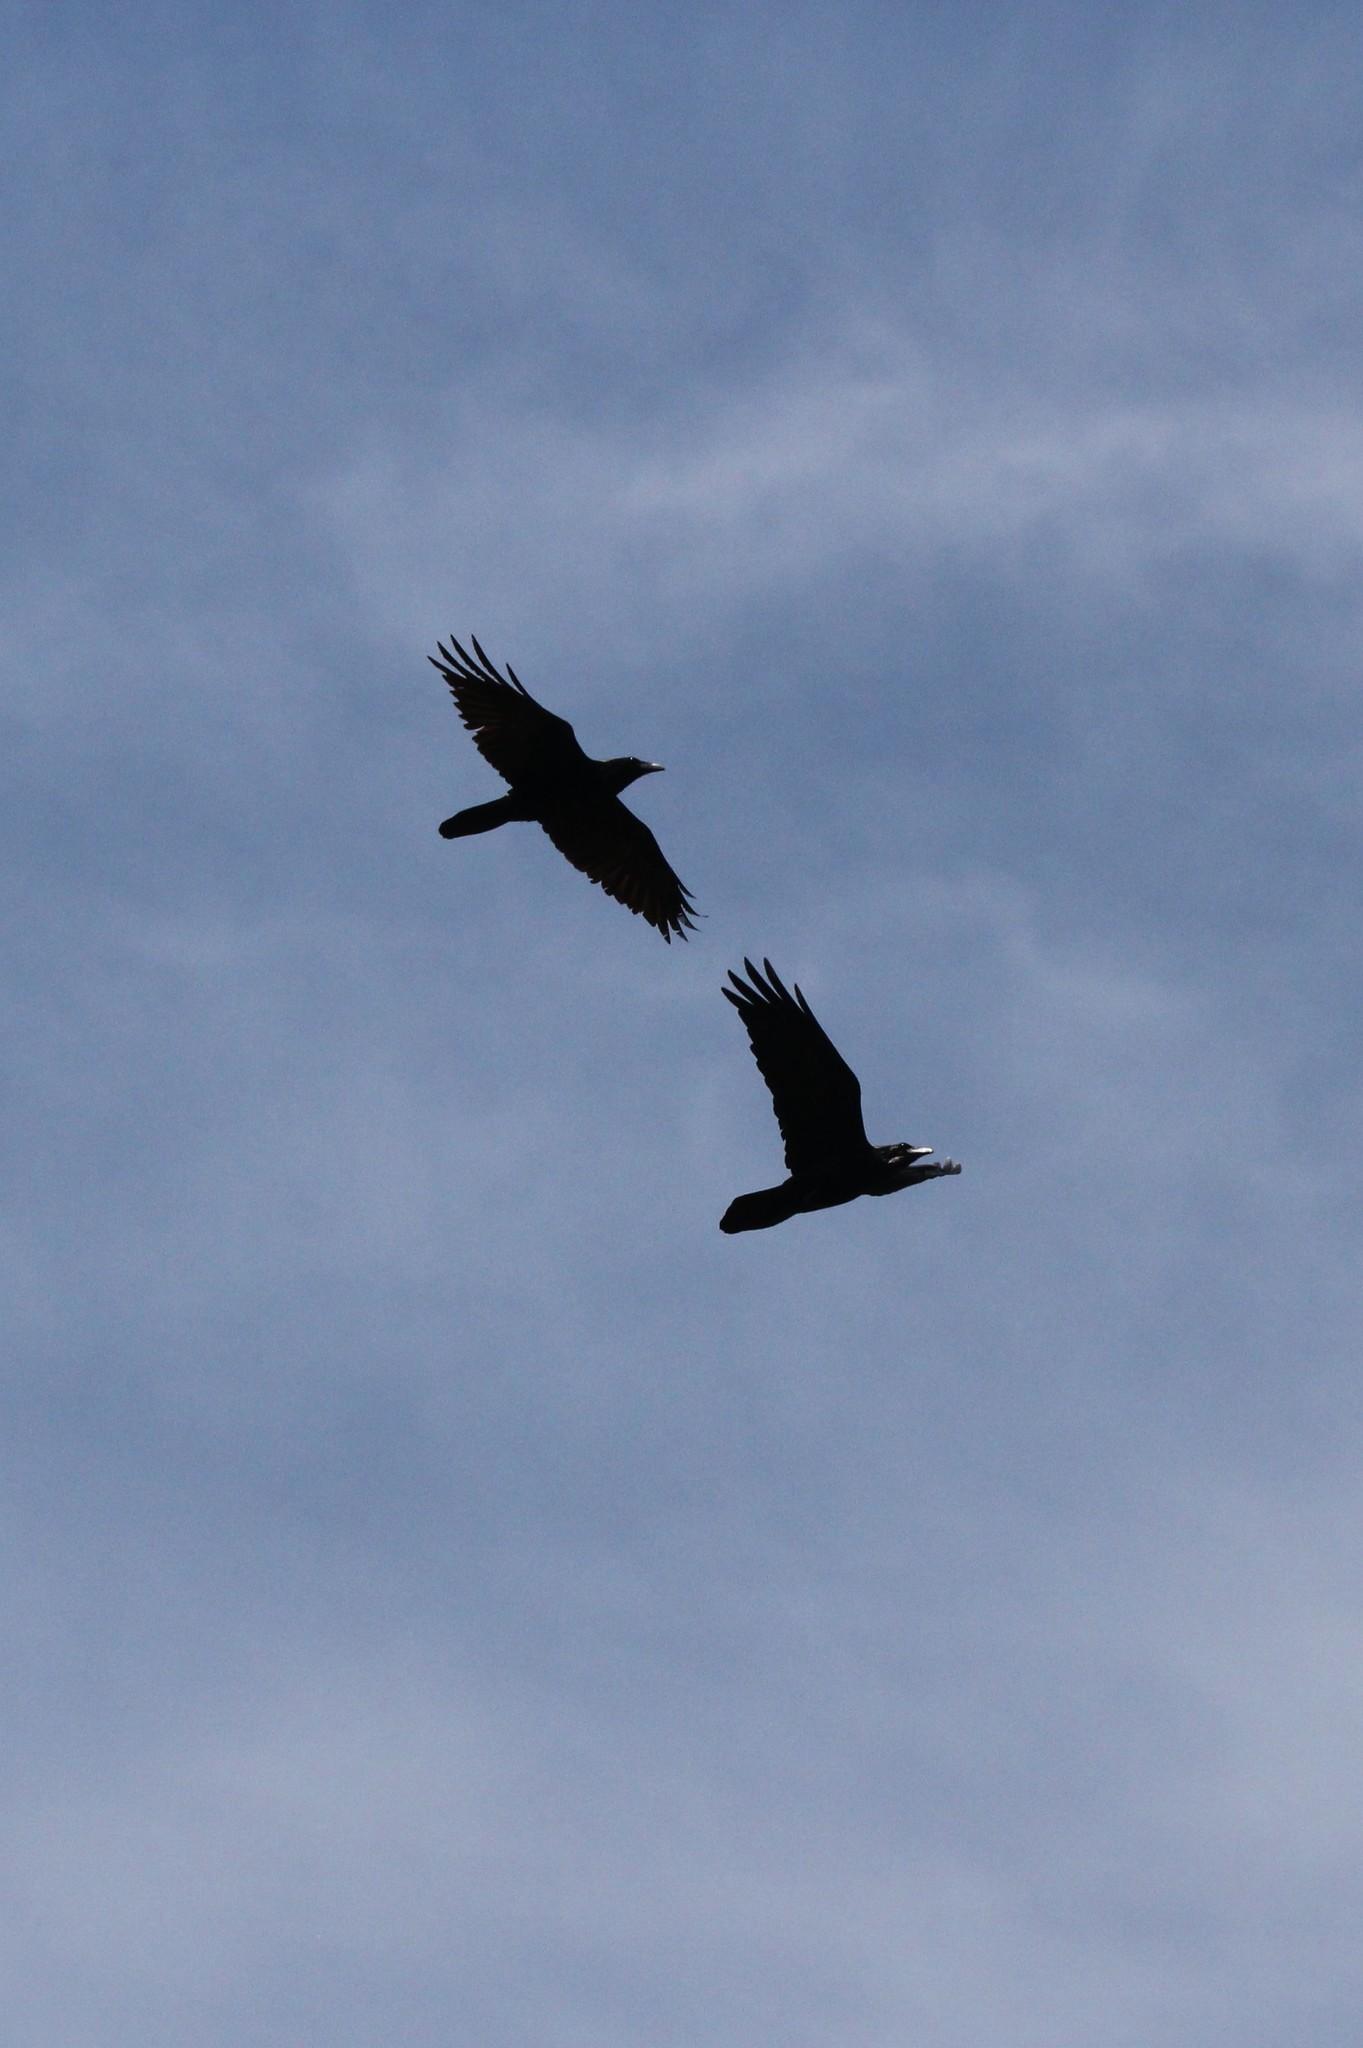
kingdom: Animalia
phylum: Chordata
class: Aves
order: Passeriformes
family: Corvidae
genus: Corvus
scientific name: Corvus corax
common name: Common raven
